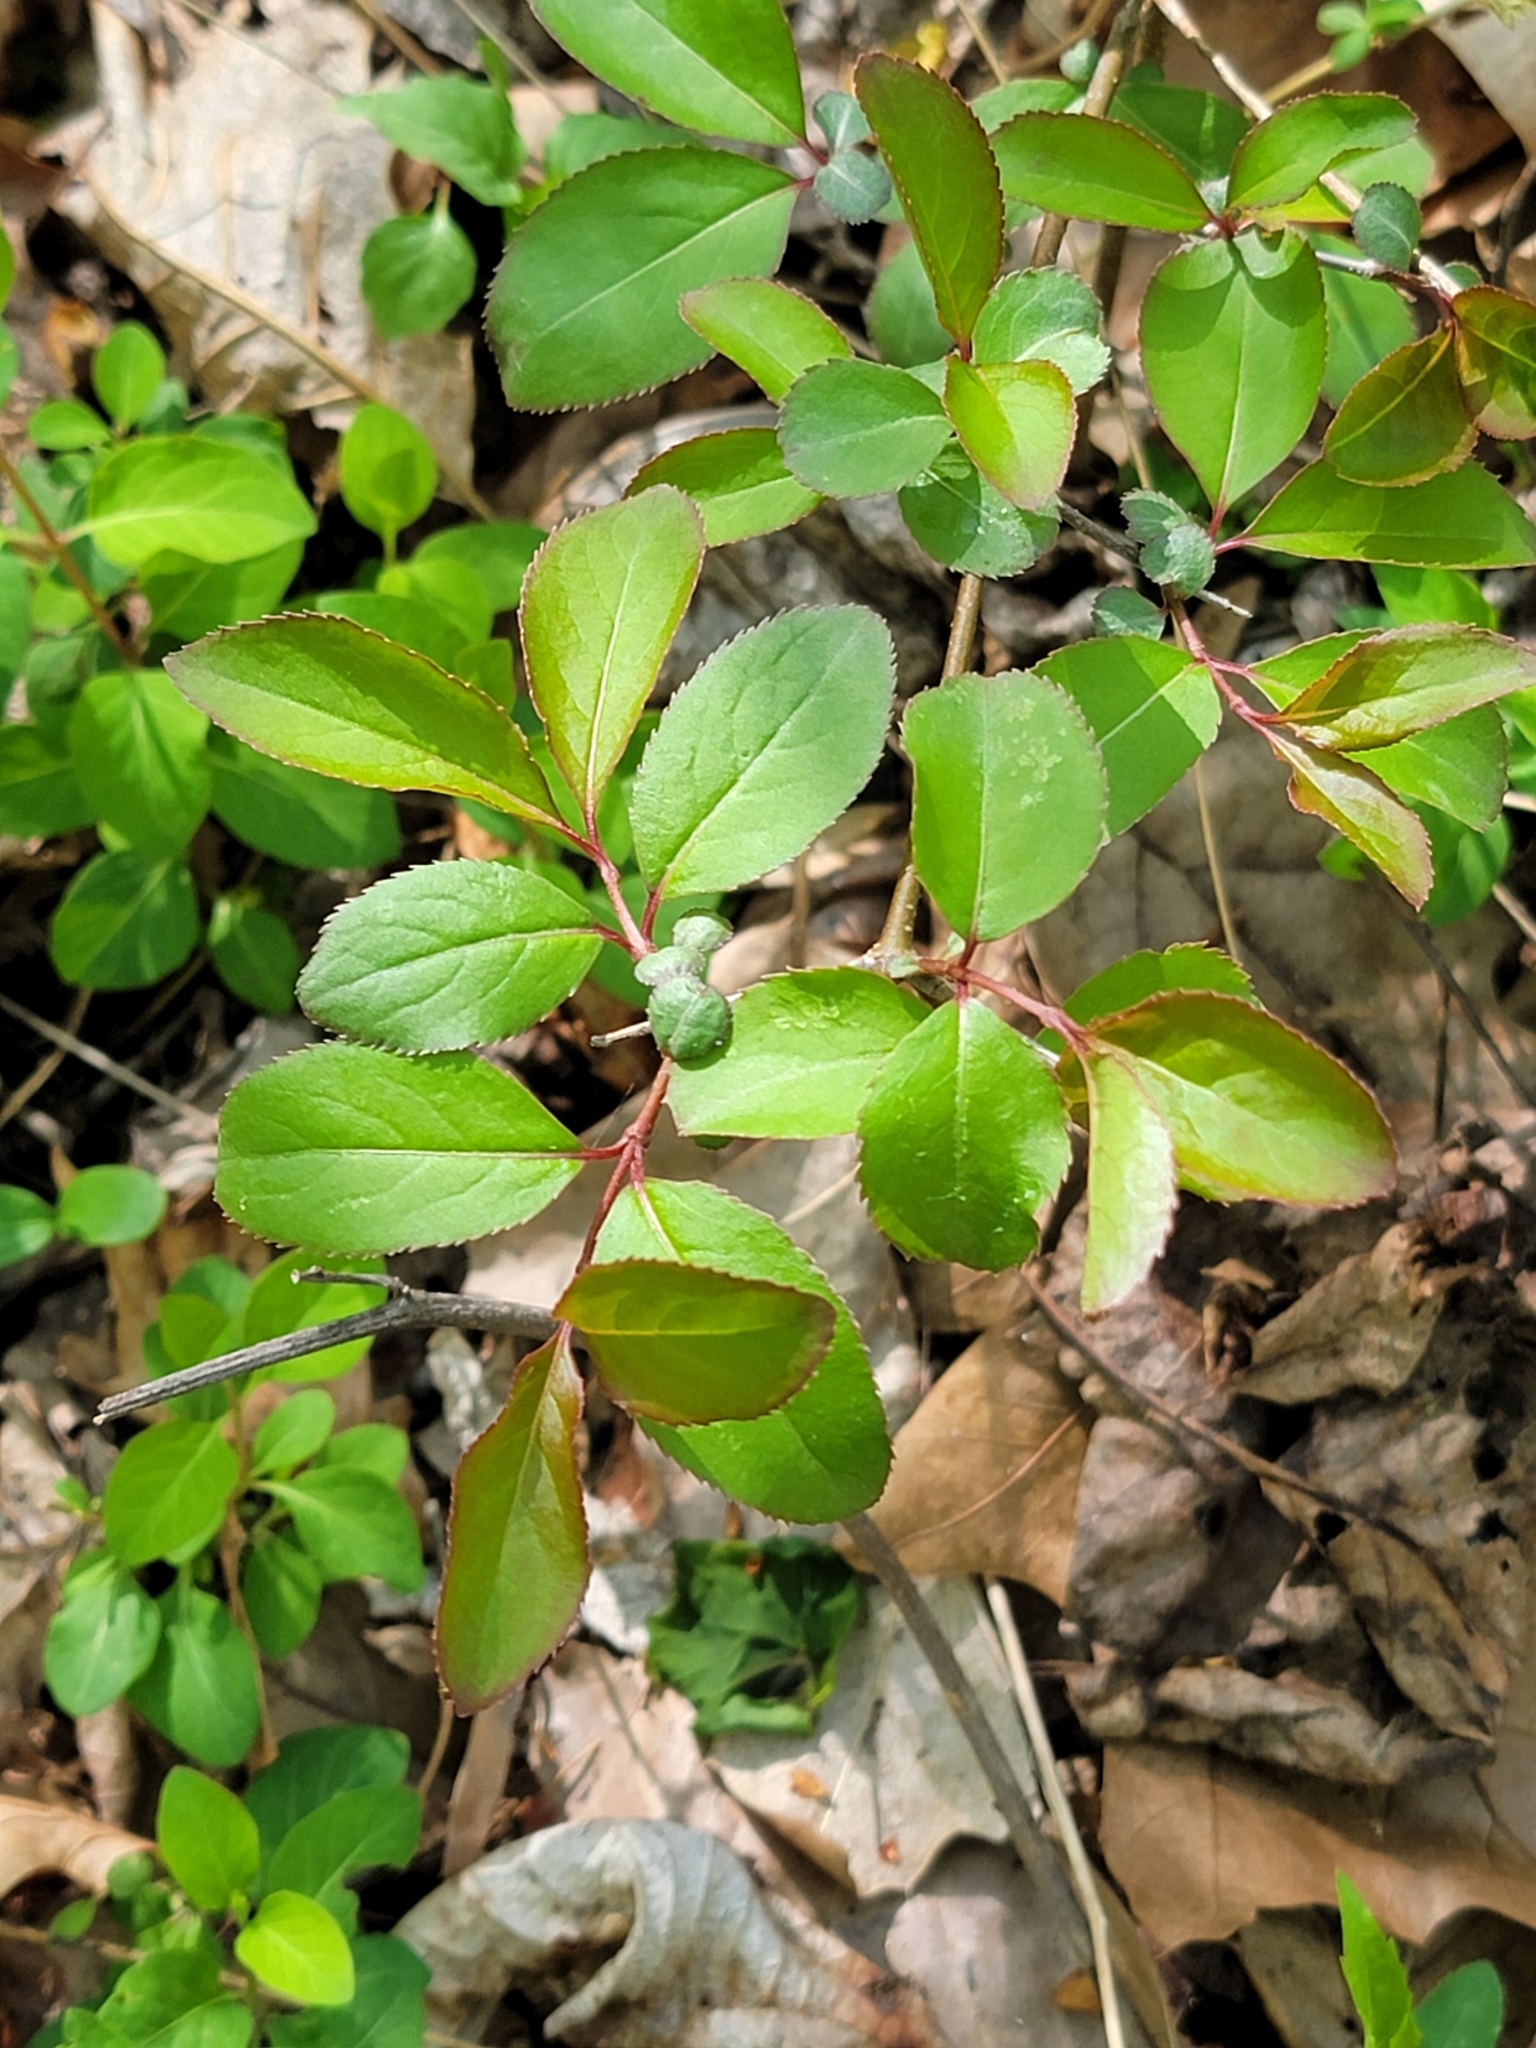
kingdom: Plantae
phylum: Tracheophyta
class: Magnoliopsida
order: Dipsacales
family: Viburnaceae
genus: Viburnum
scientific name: Viburnum prunifolium
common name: Black haw
